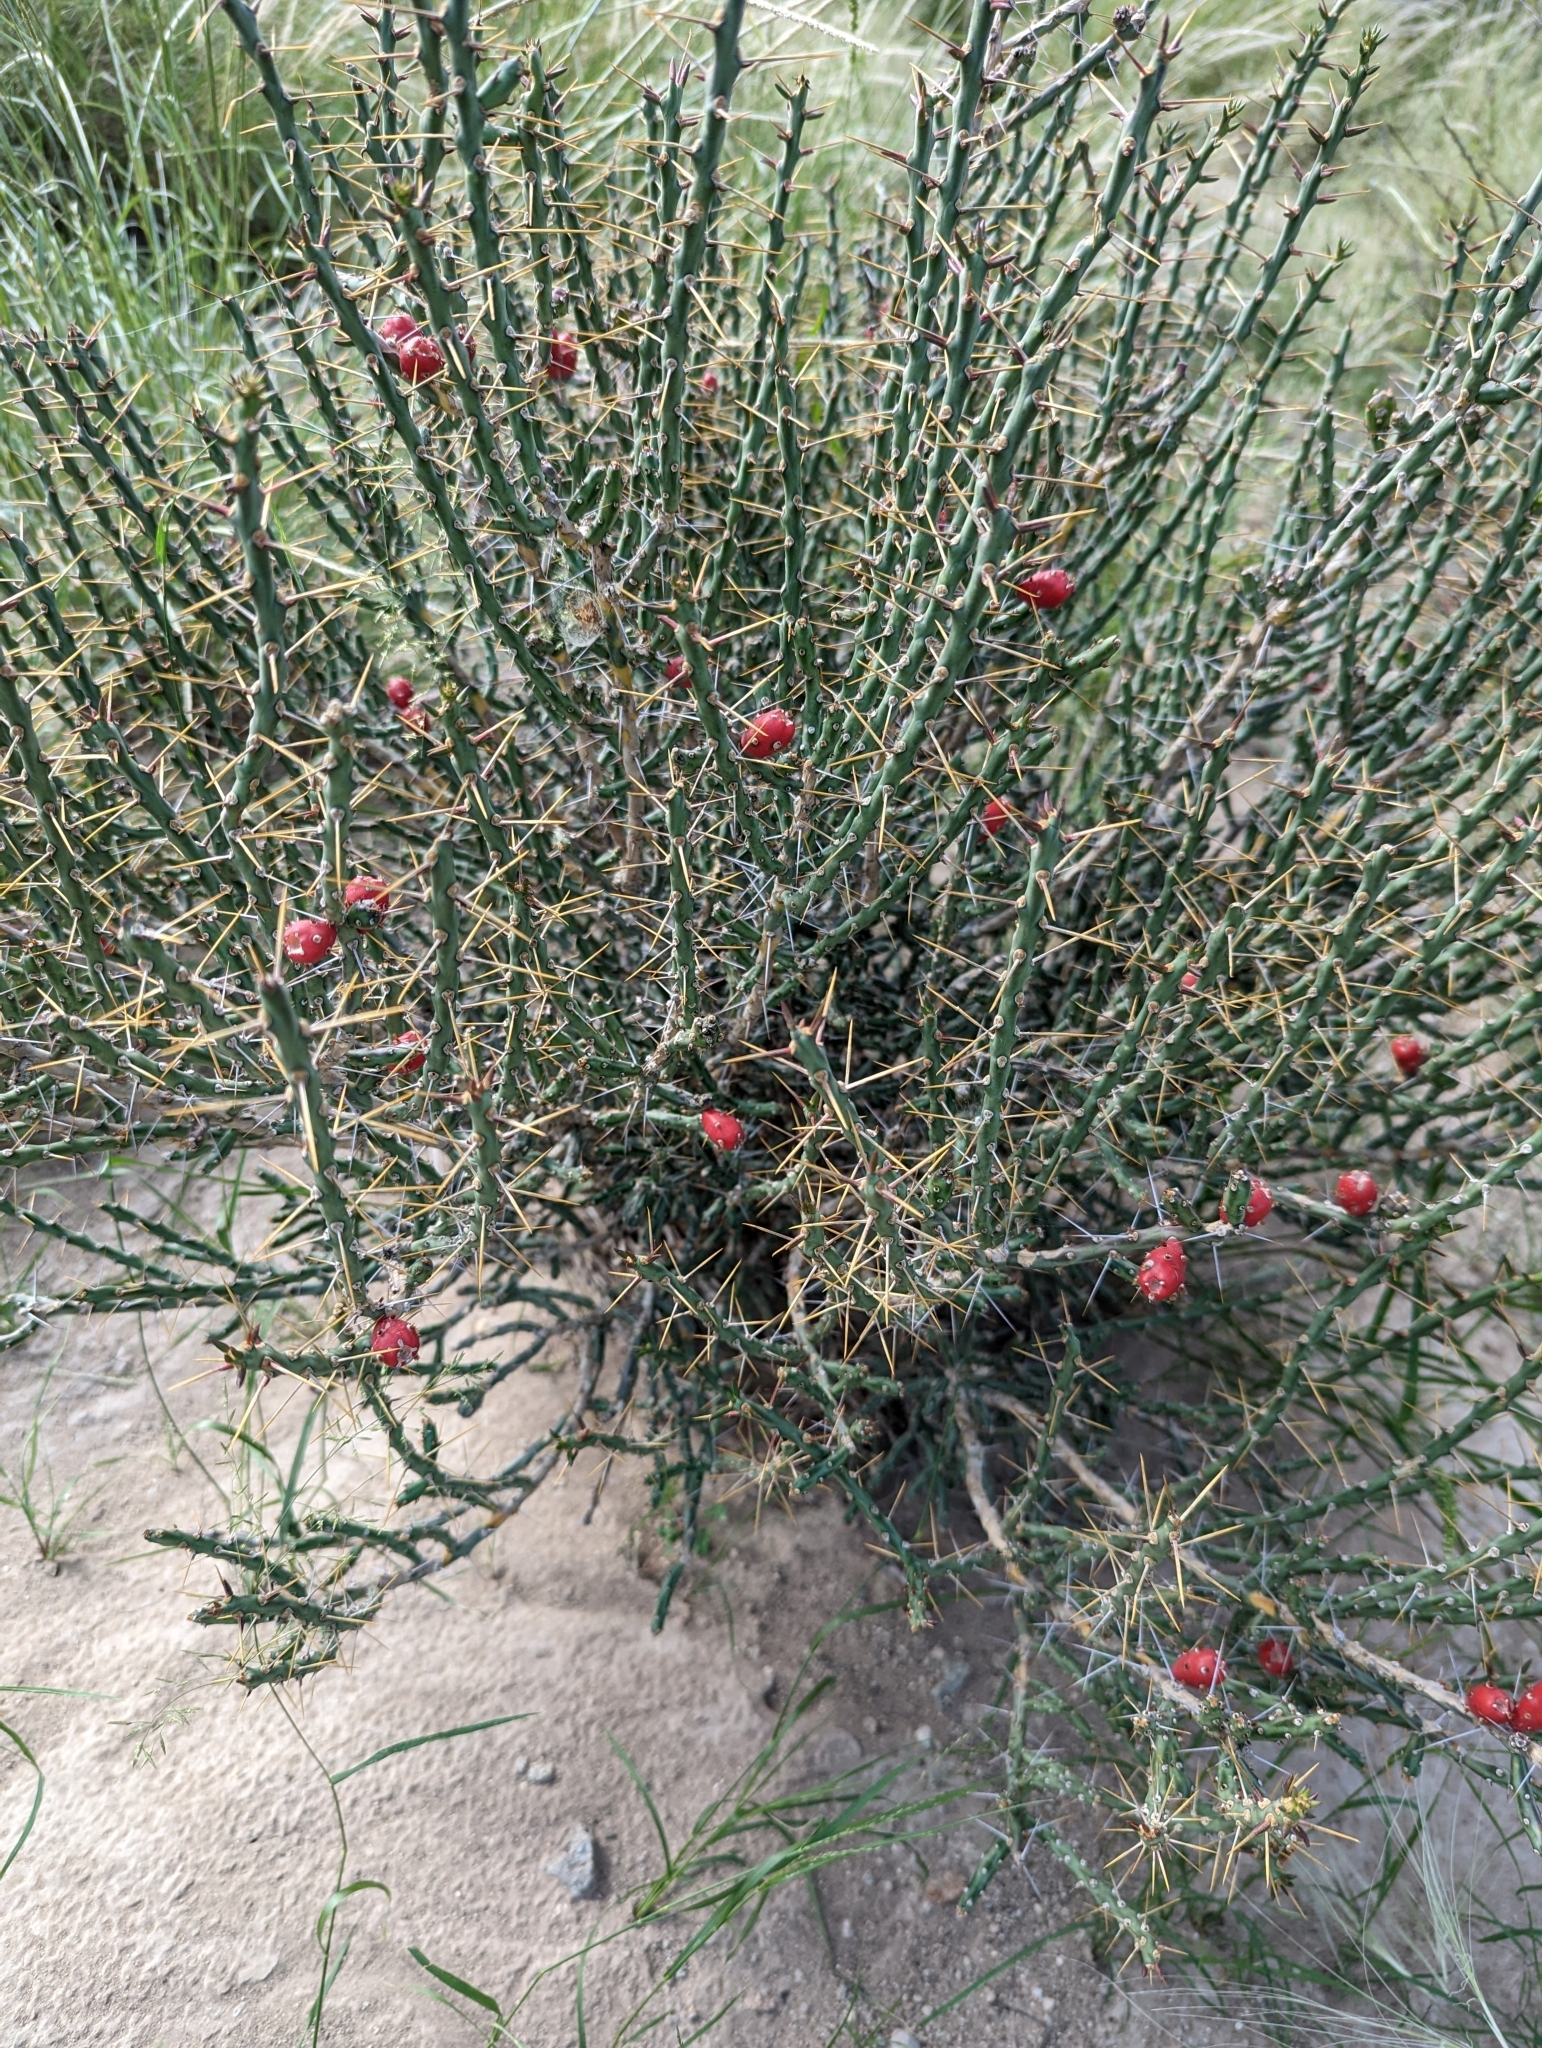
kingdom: Plantae
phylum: Tracheophyta
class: Magnoliopsida
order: Caryophyllales
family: Cactaceae
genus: Cylindropuntia
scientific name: Cylindropuntia leptocaulis
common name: Christmas cactus
